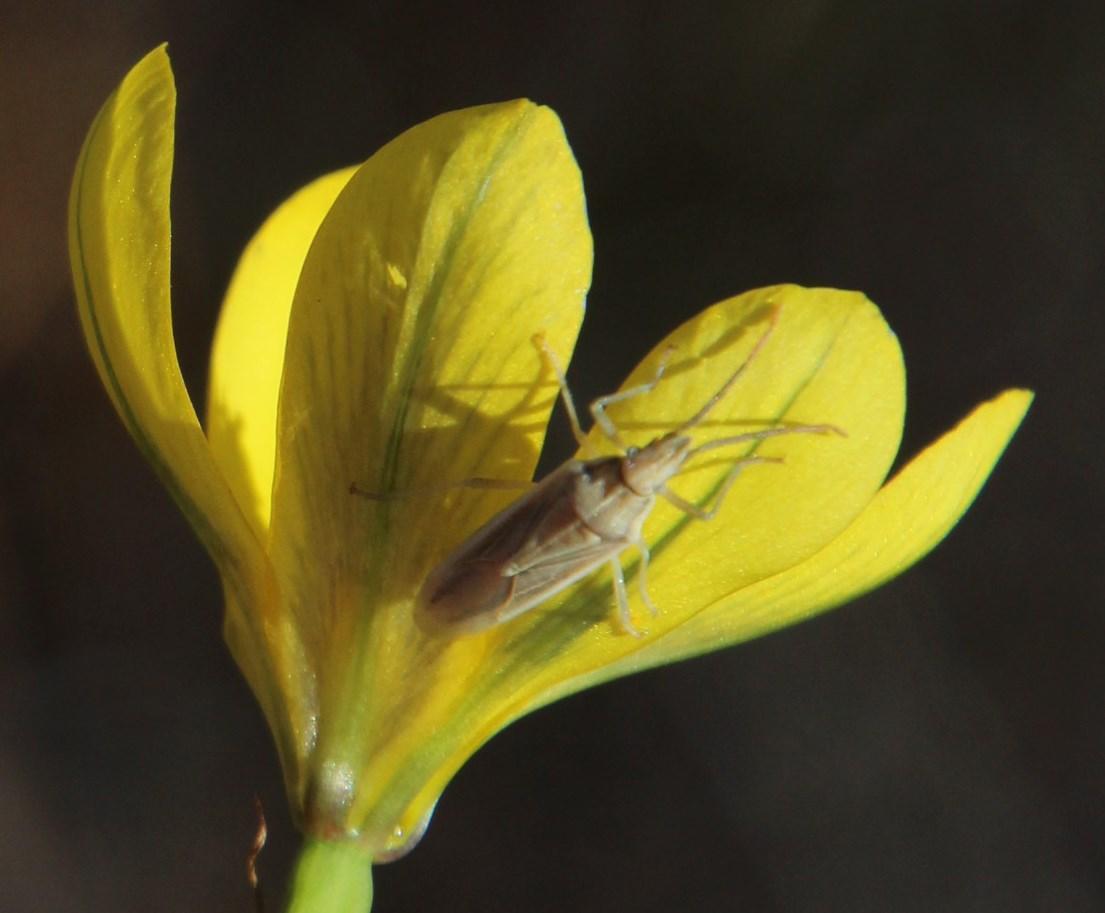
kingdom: Animalia
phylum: Arthropoda
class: Insecta
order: Hemiptera
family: Pentatomidae
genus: Mecidea
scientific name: Mecidea
